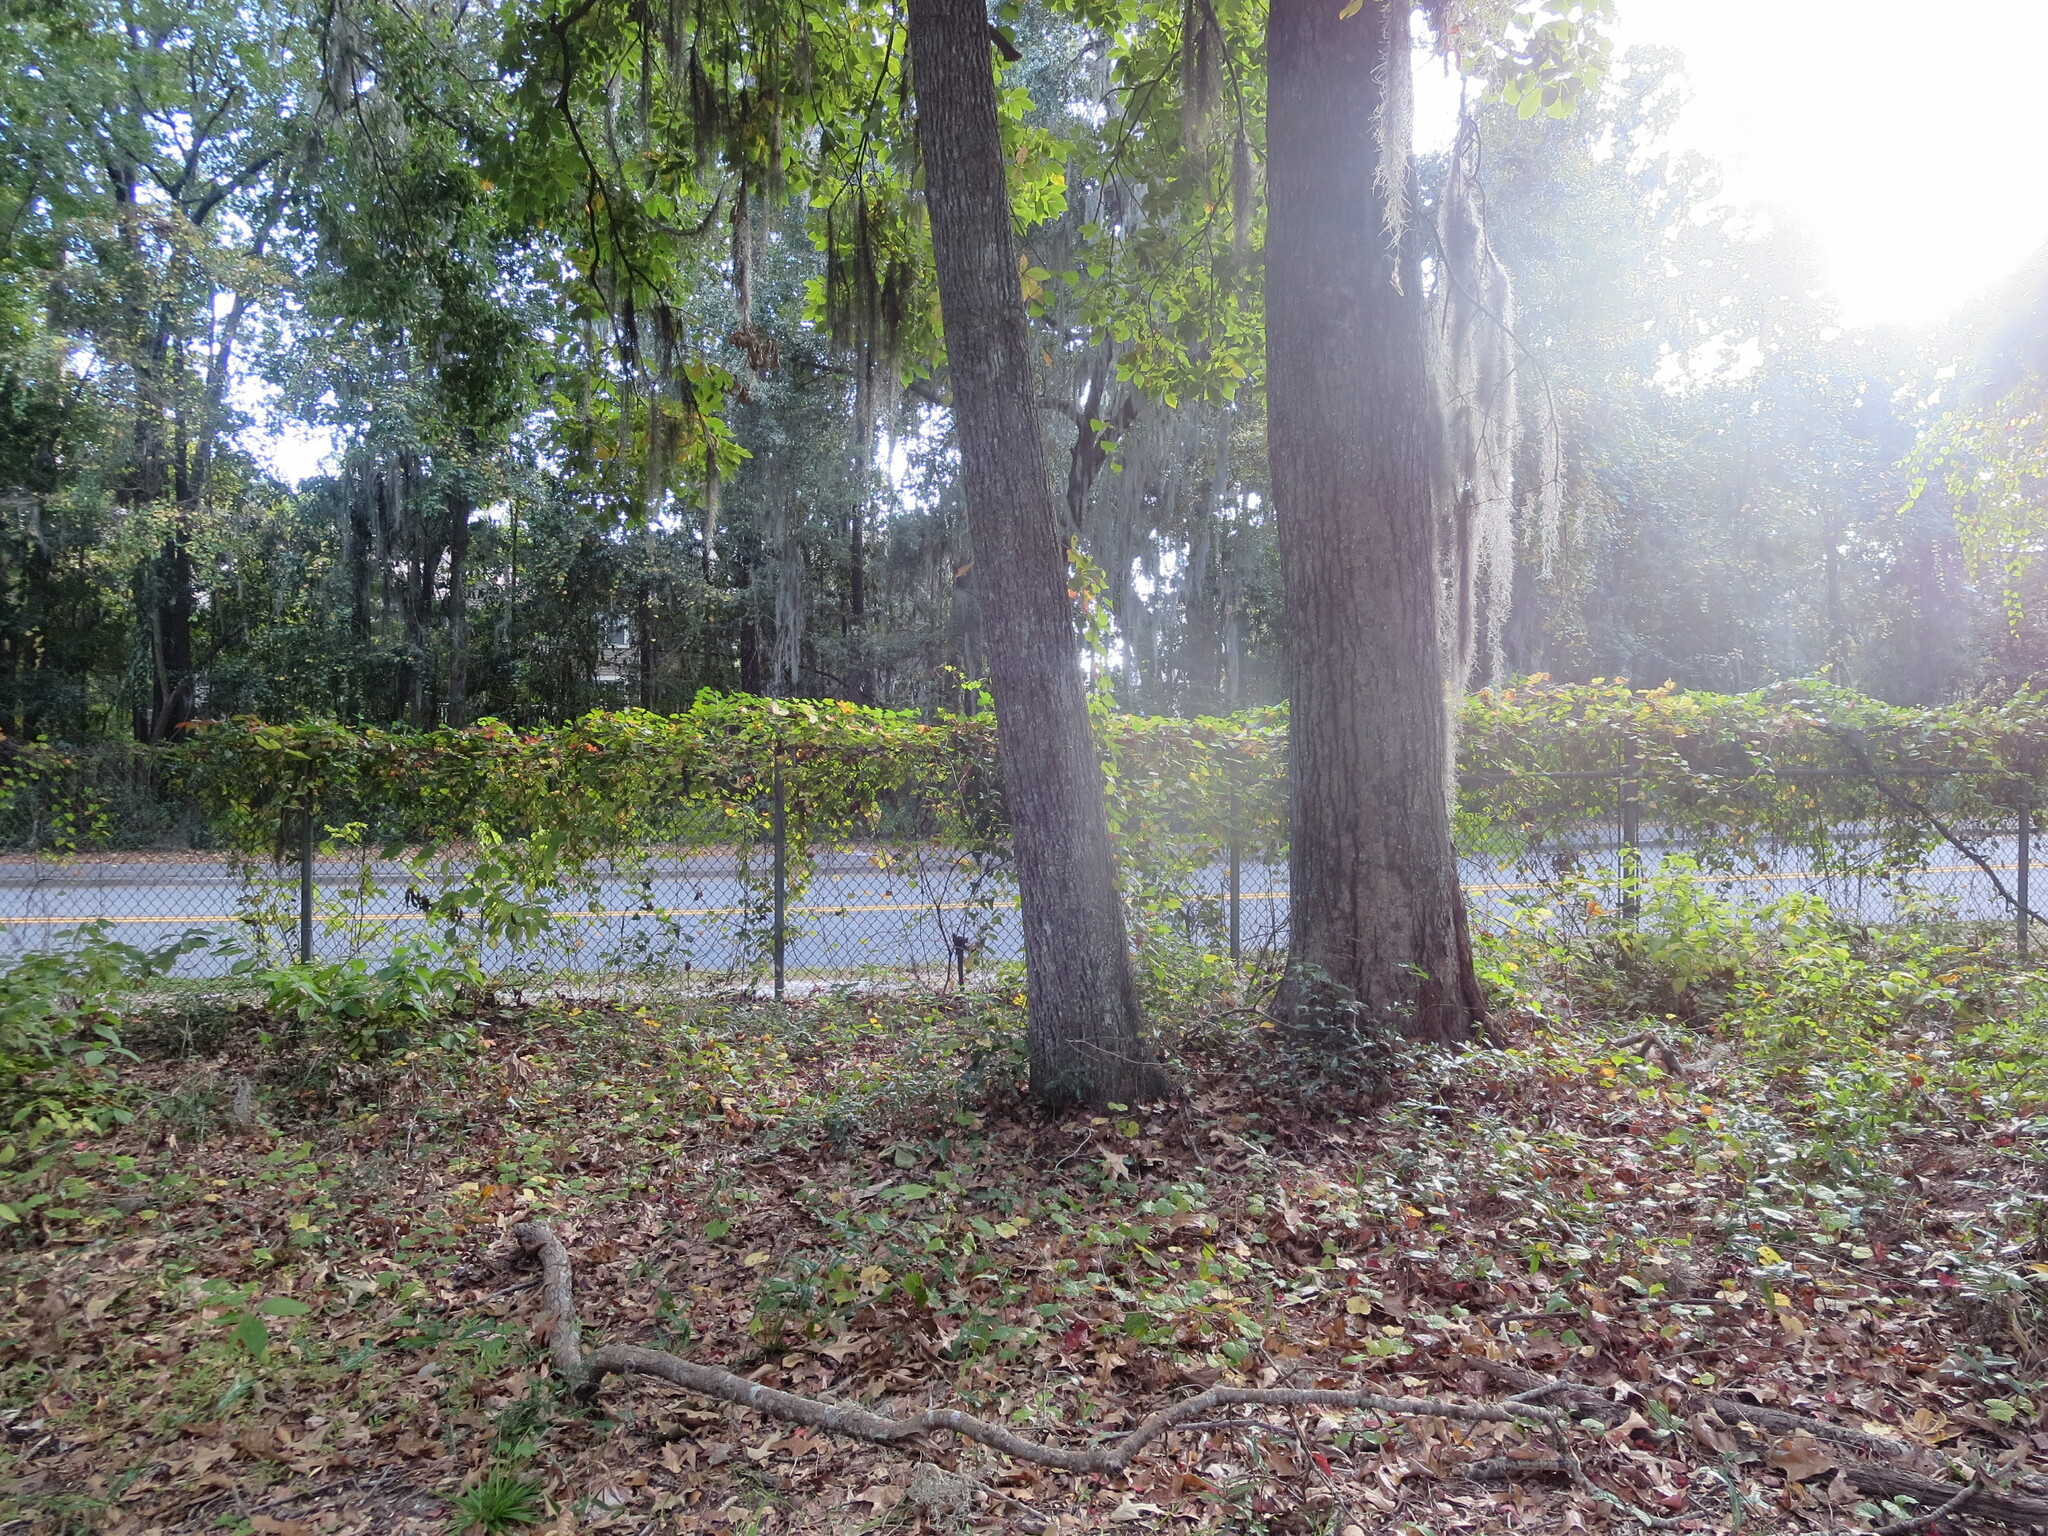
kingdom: Plantae
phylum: Tracheophyta
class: Magnoliopsida
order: Fagales
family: Juglandaceae
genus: Carya
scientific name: Carya alba
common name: Mockernut hickory
